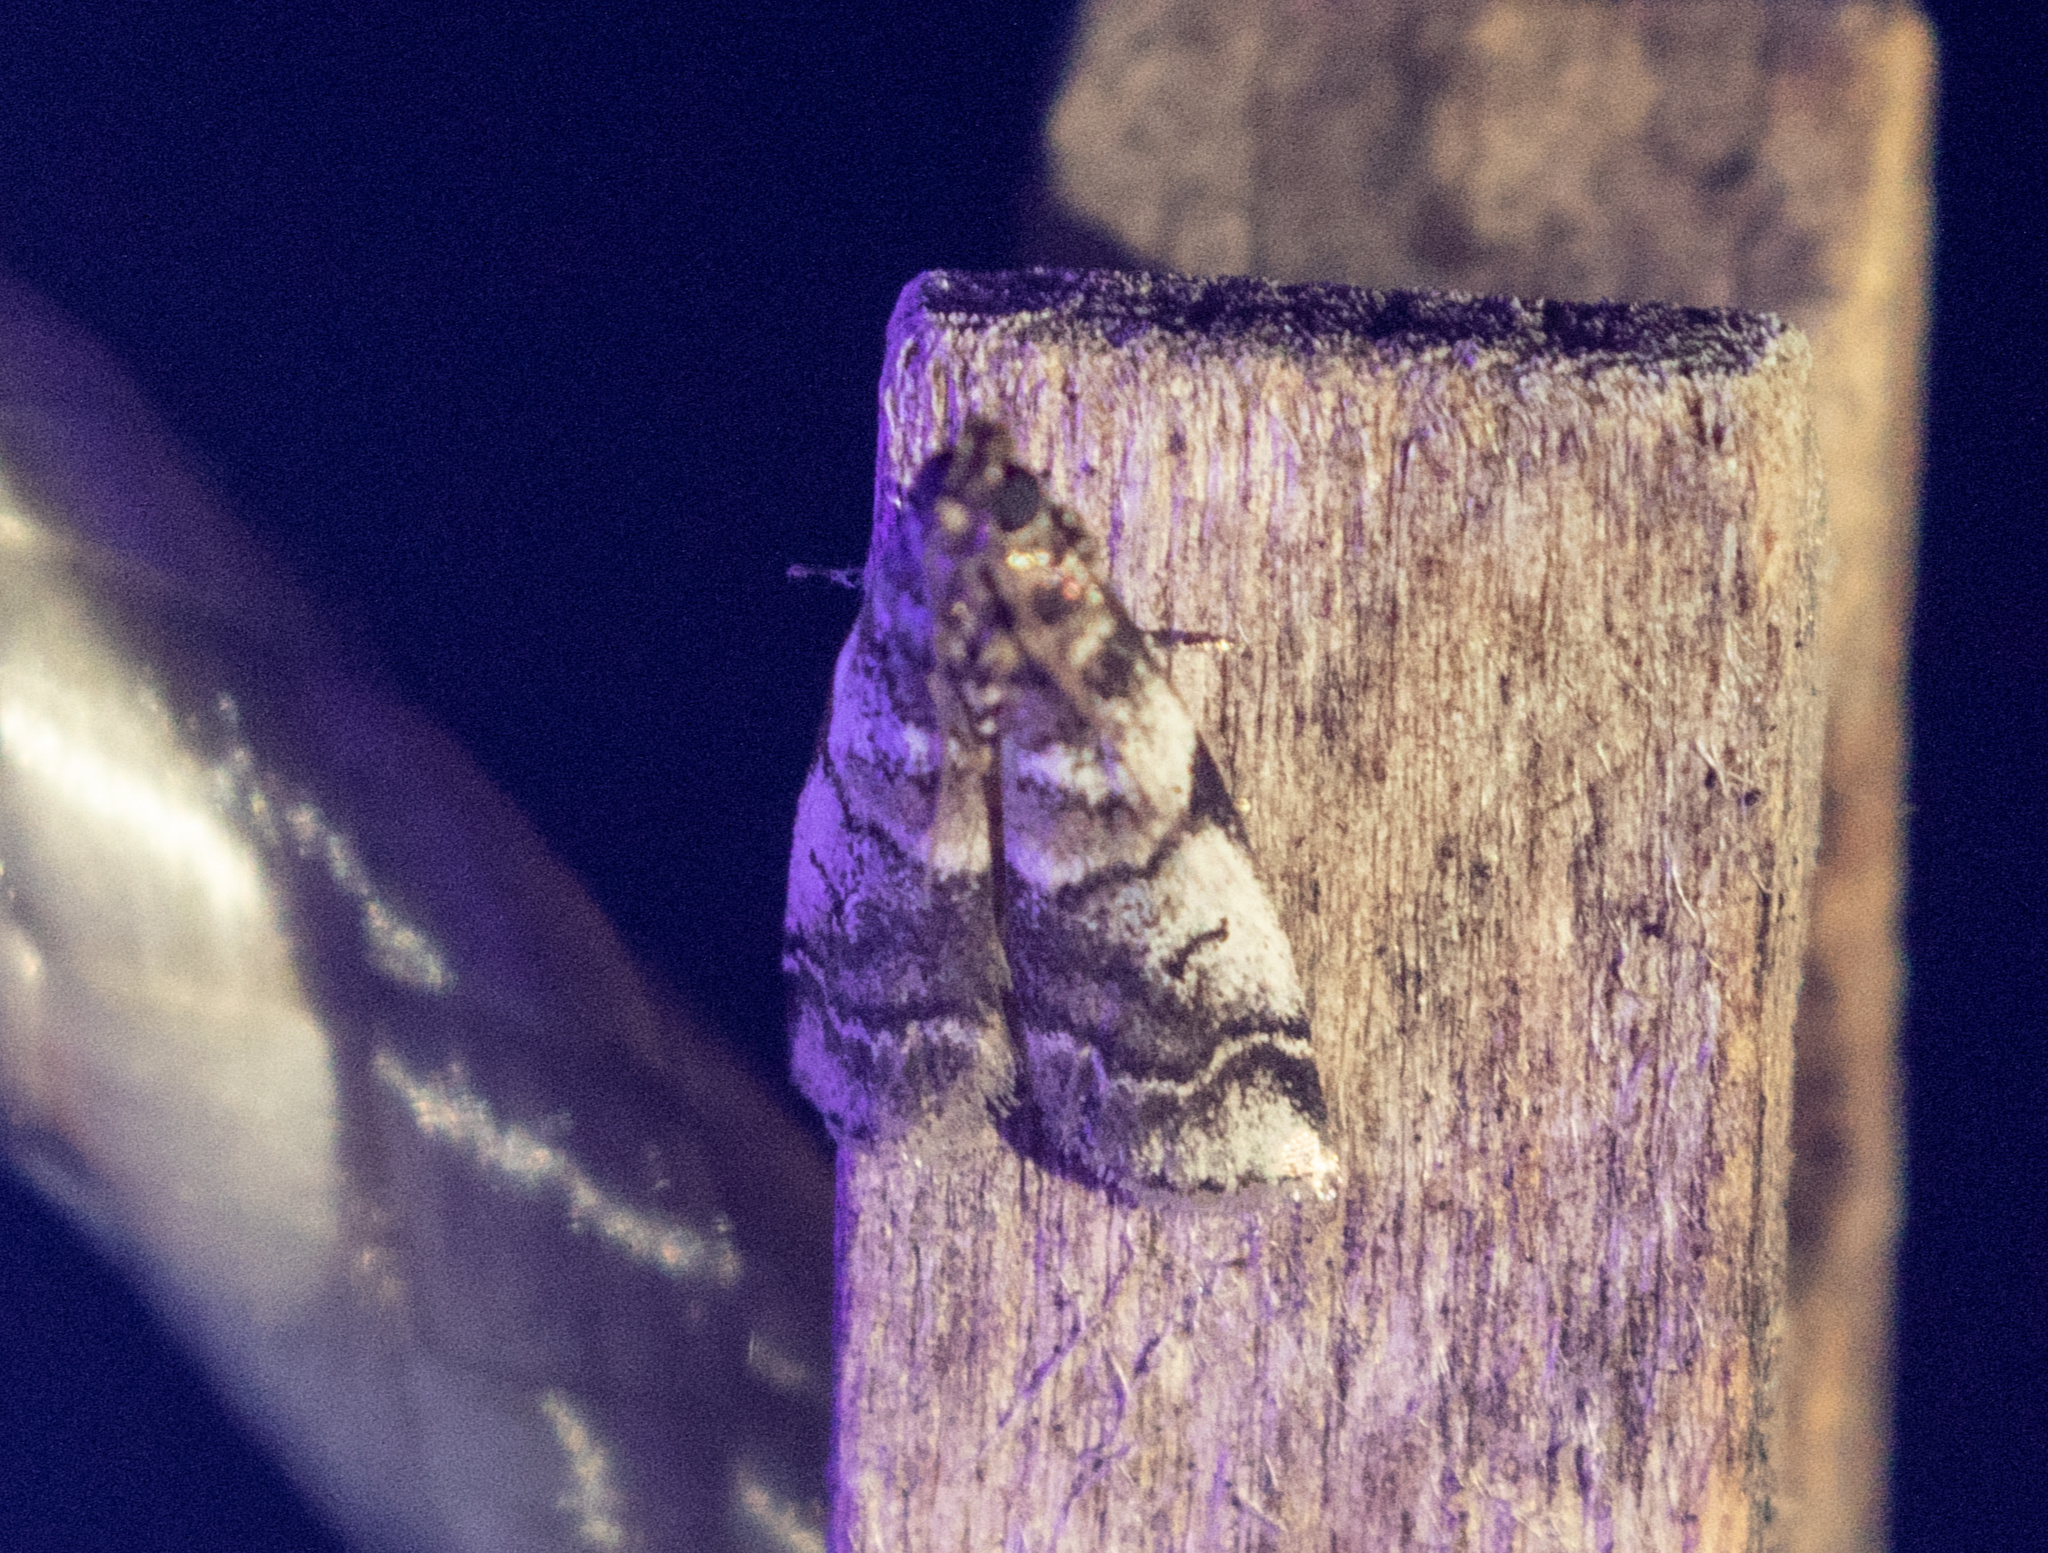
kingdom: Animalia
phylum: Arthropoda
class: Insecta
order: Lepidoptera
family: Pyralidae
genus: Acrobasis
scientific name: Acrobasis indigenella
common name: Leaf crumpler moth
